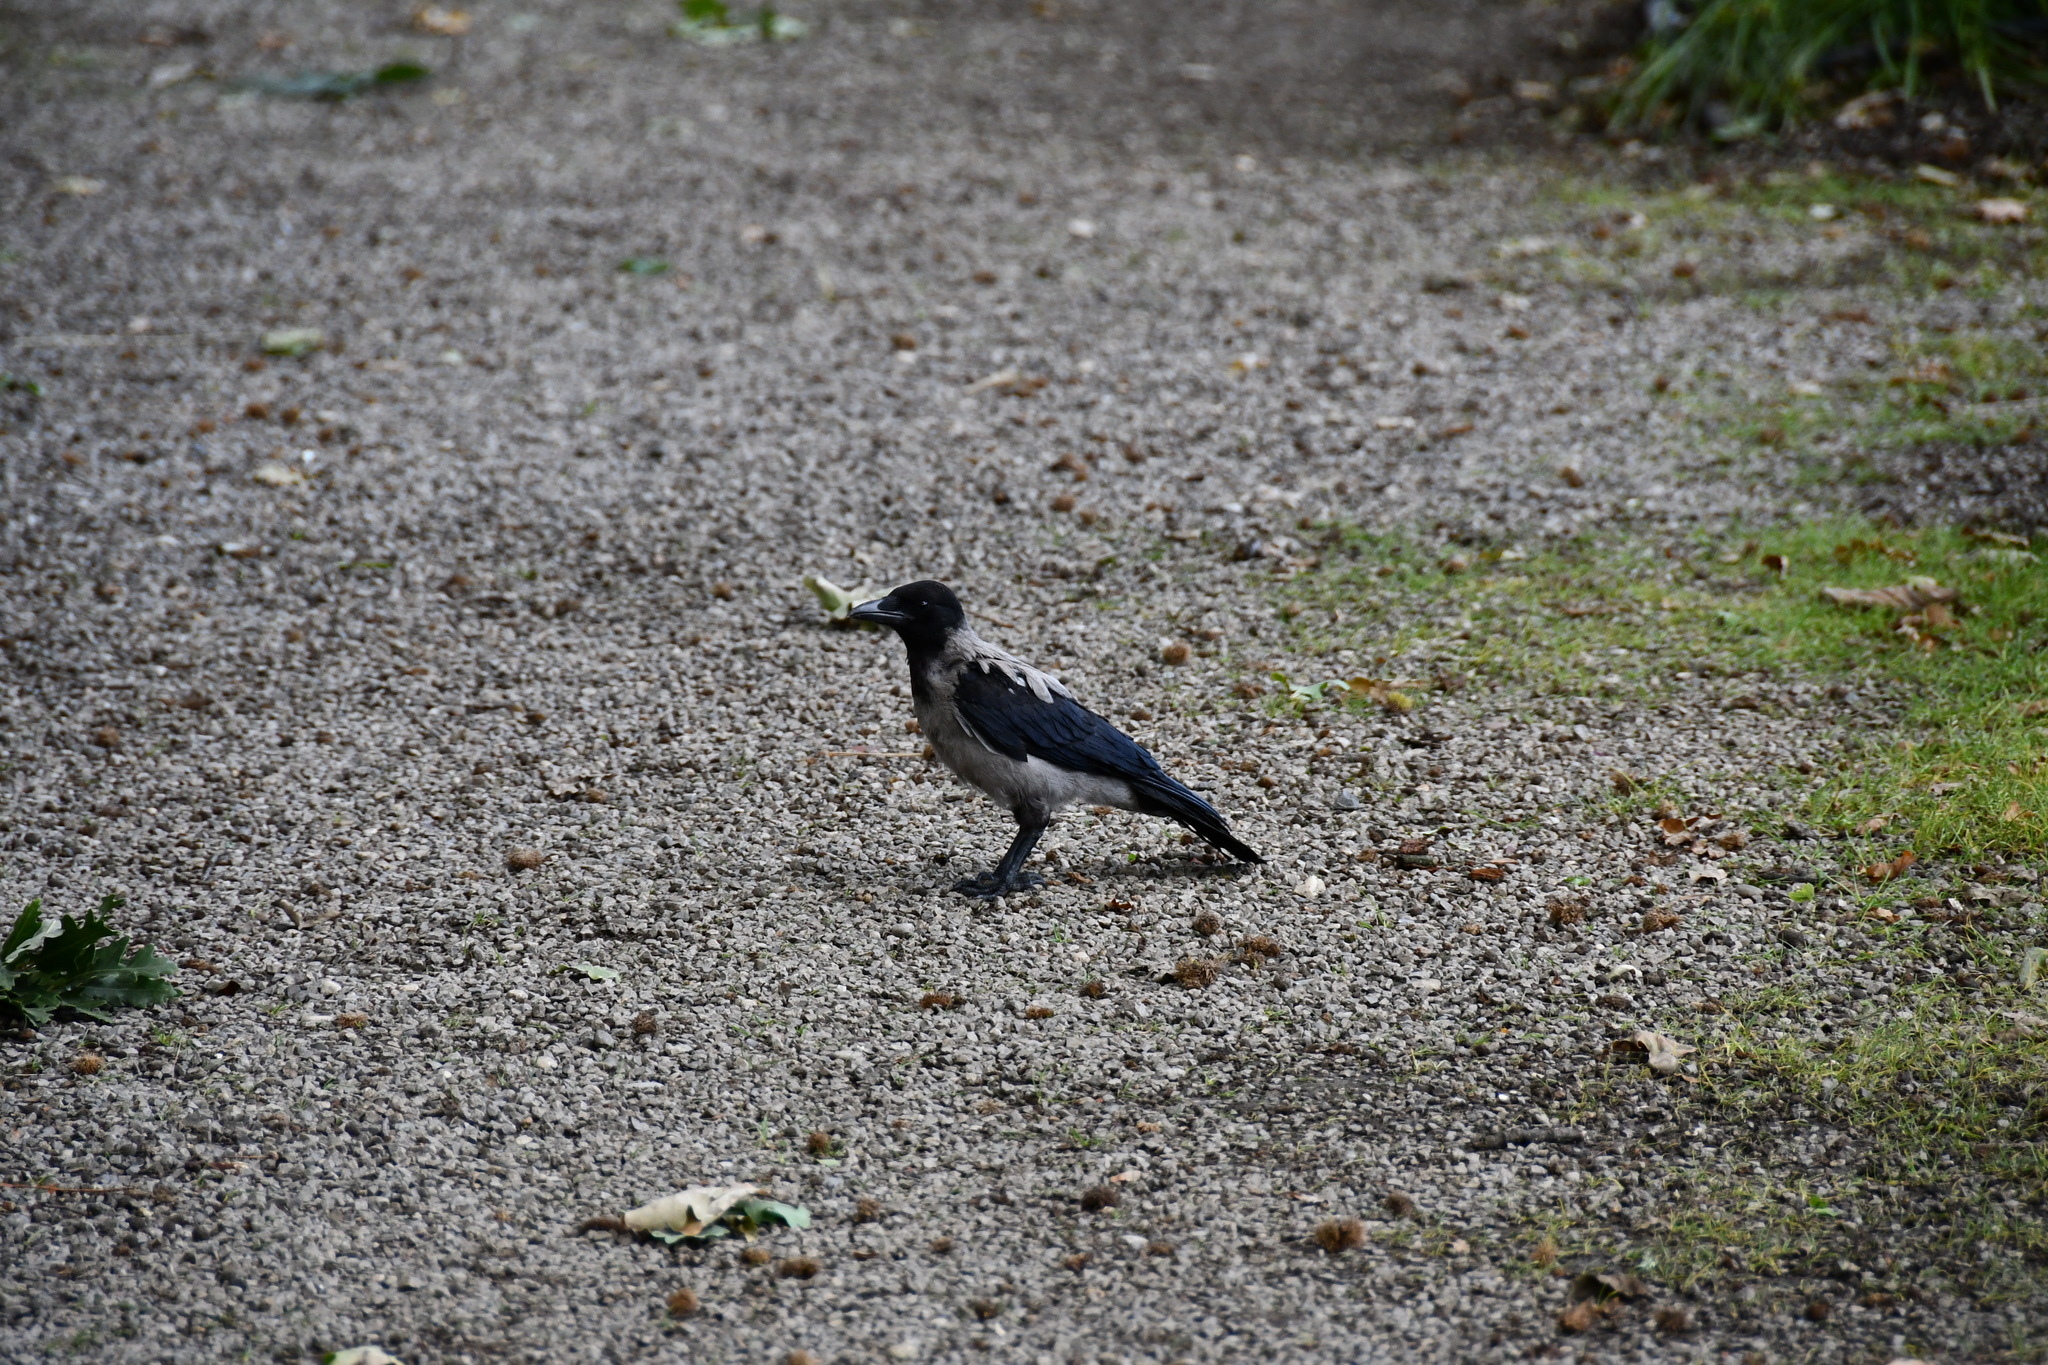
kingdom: Animalia
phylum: Chordata
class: Aves
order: Passeriformes
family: Corvidae
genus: Corvus
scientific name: Corvus cornix
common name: Hooded crow
